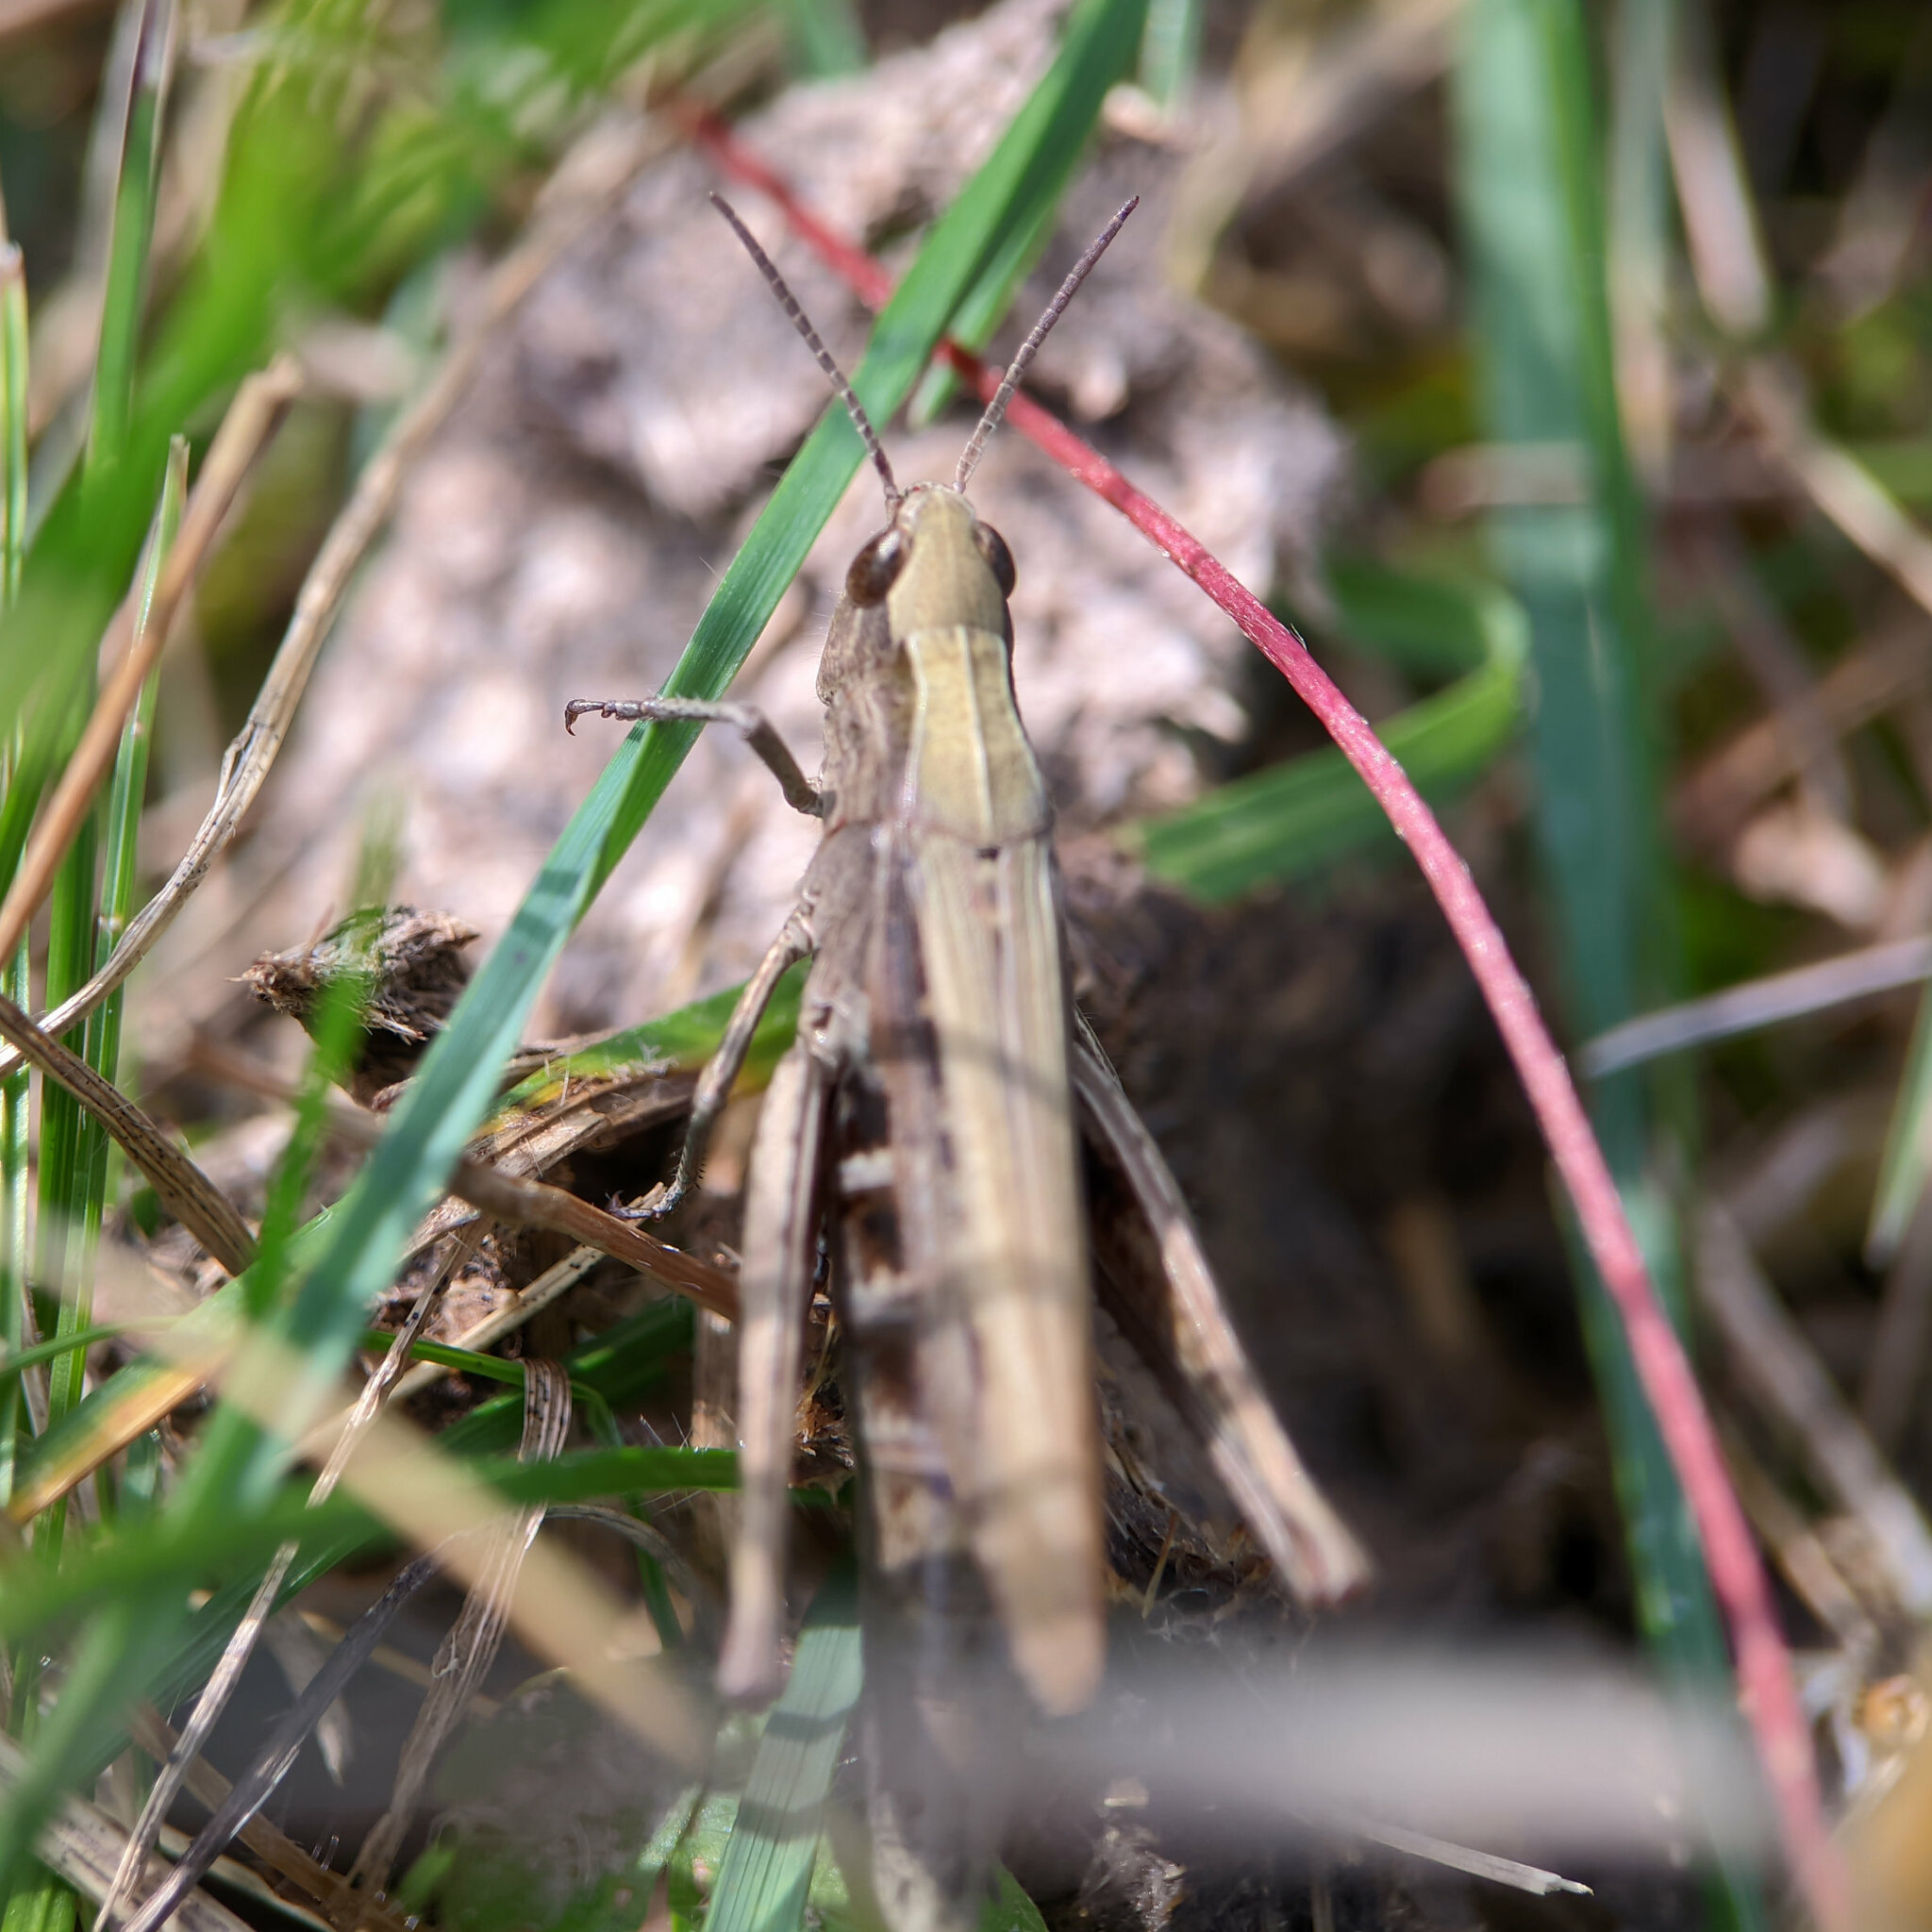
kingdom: Animalia
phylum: Arthropoda
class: Insecta
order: Orthoptera
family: Acrididae
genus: Chorthippus
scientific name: Chorthippus dorsatus
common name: Steppe grasshopper
